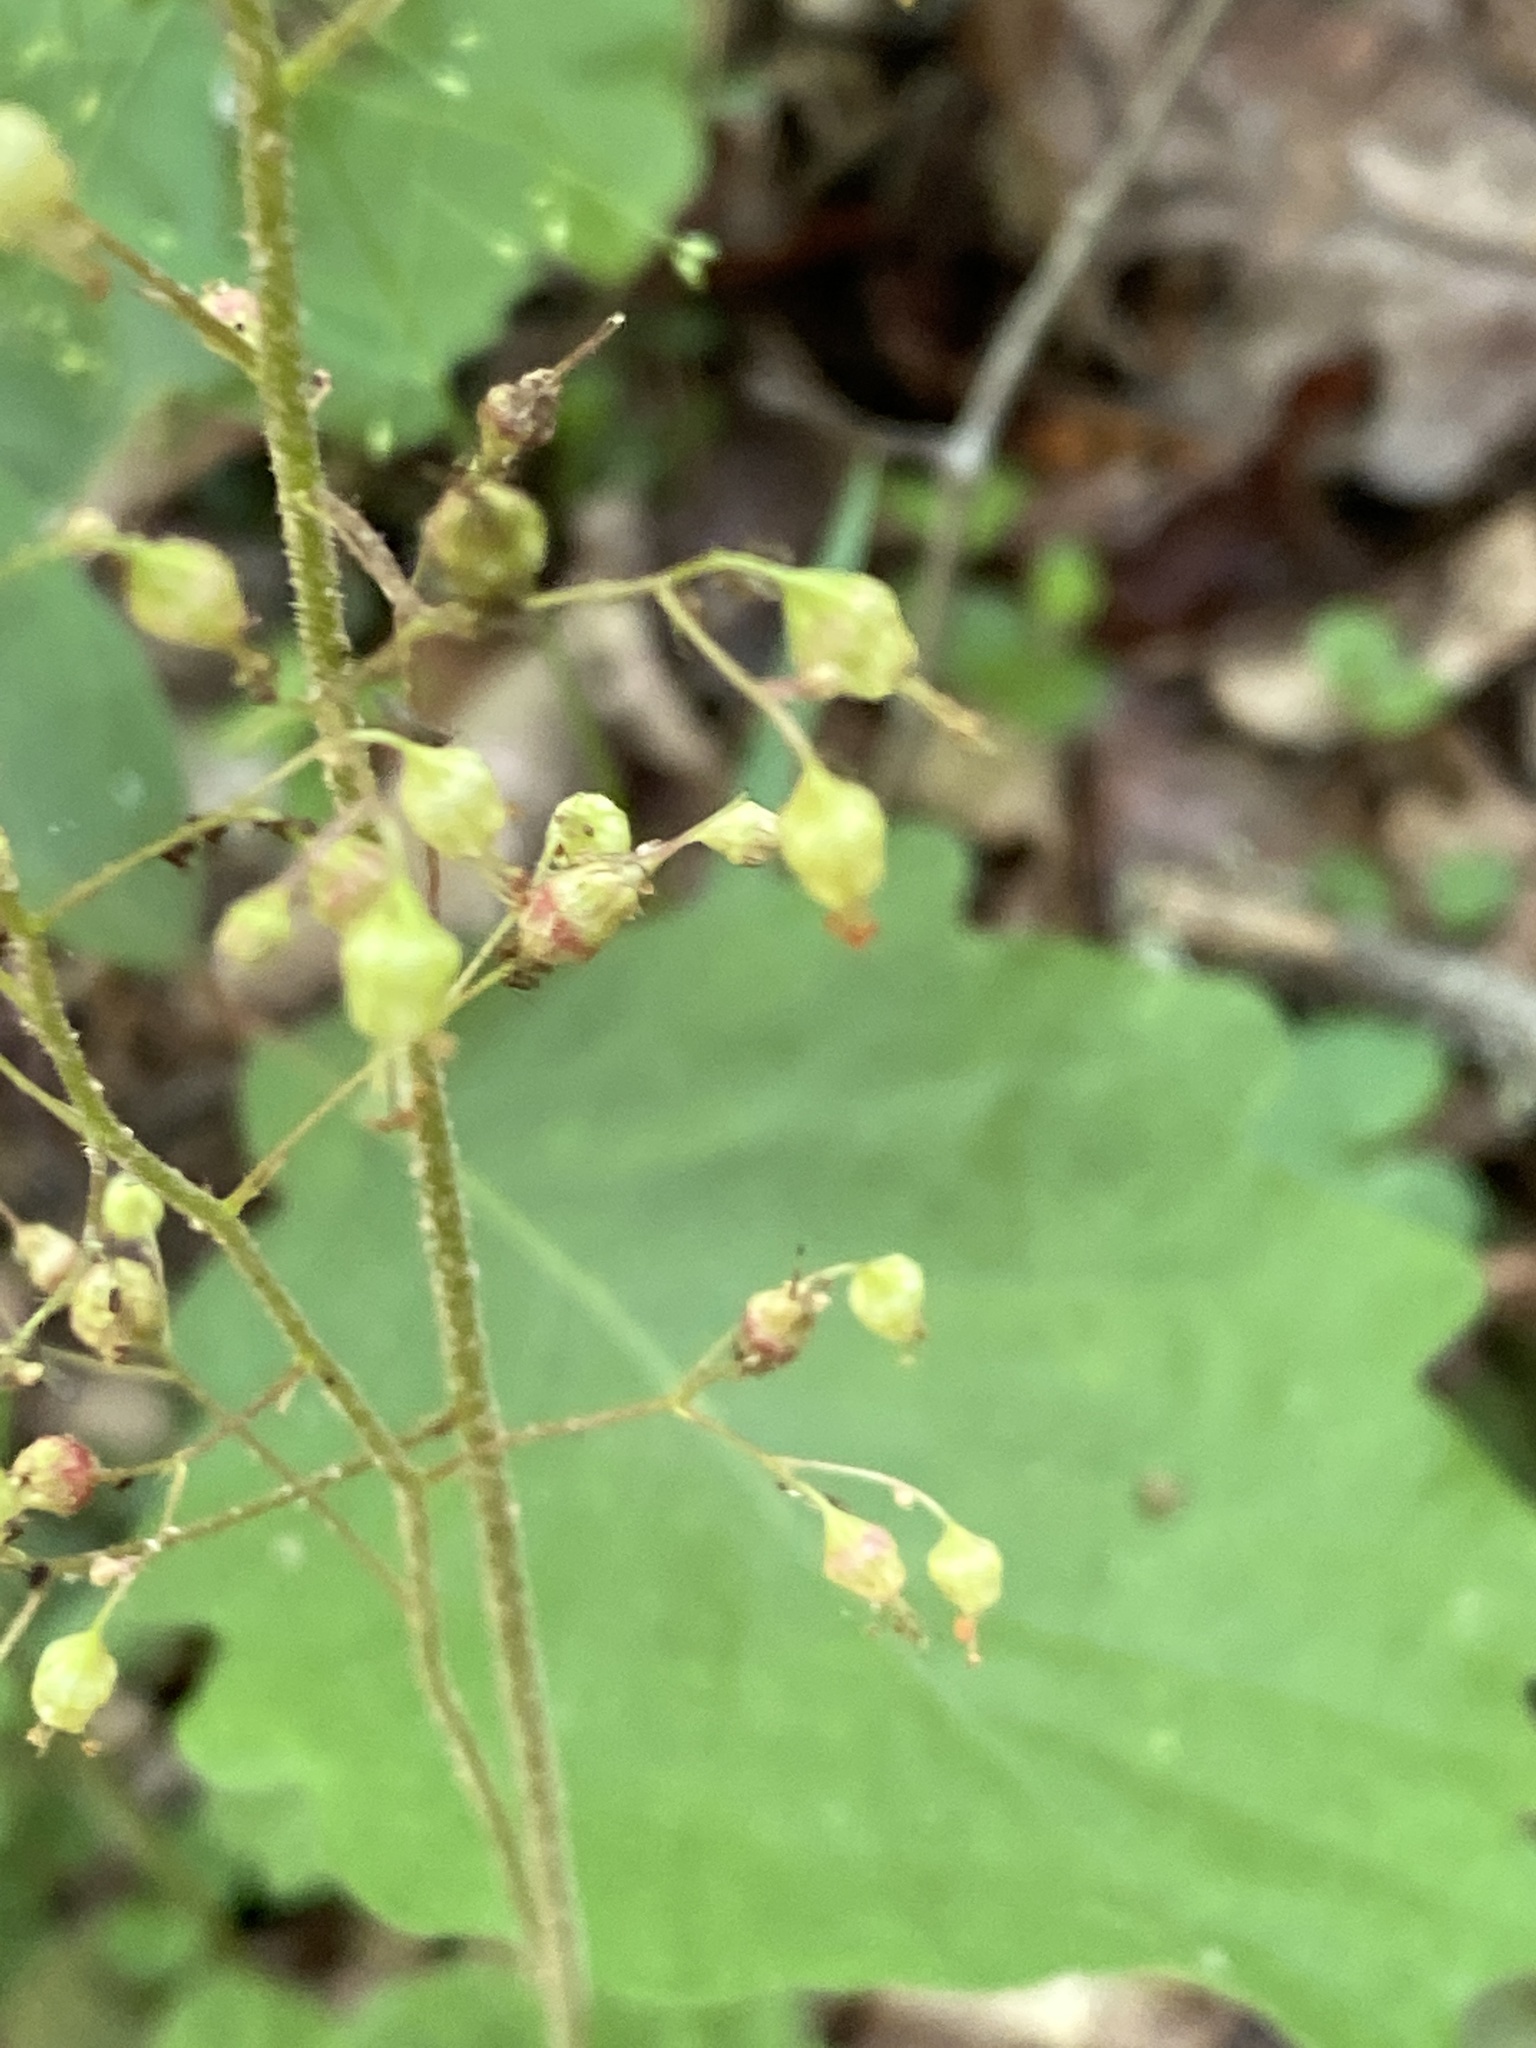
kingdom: Plantae
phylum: Tracheophyta
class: Magnoliopsida
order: Saxifragales
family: Saxifragaceae
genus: Heuchera
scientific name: Heuchera americana
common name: Alumroot
